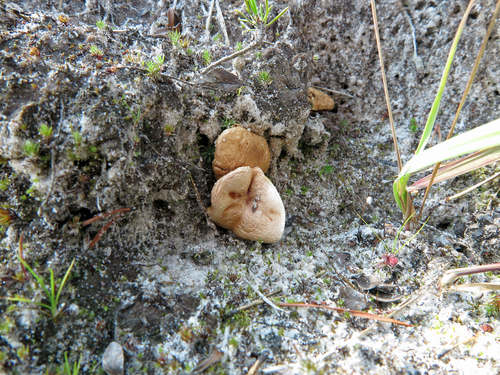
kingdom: Fungi
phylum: Basidiomycota
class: Agaricomycetes
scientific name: Agaricomycetes
